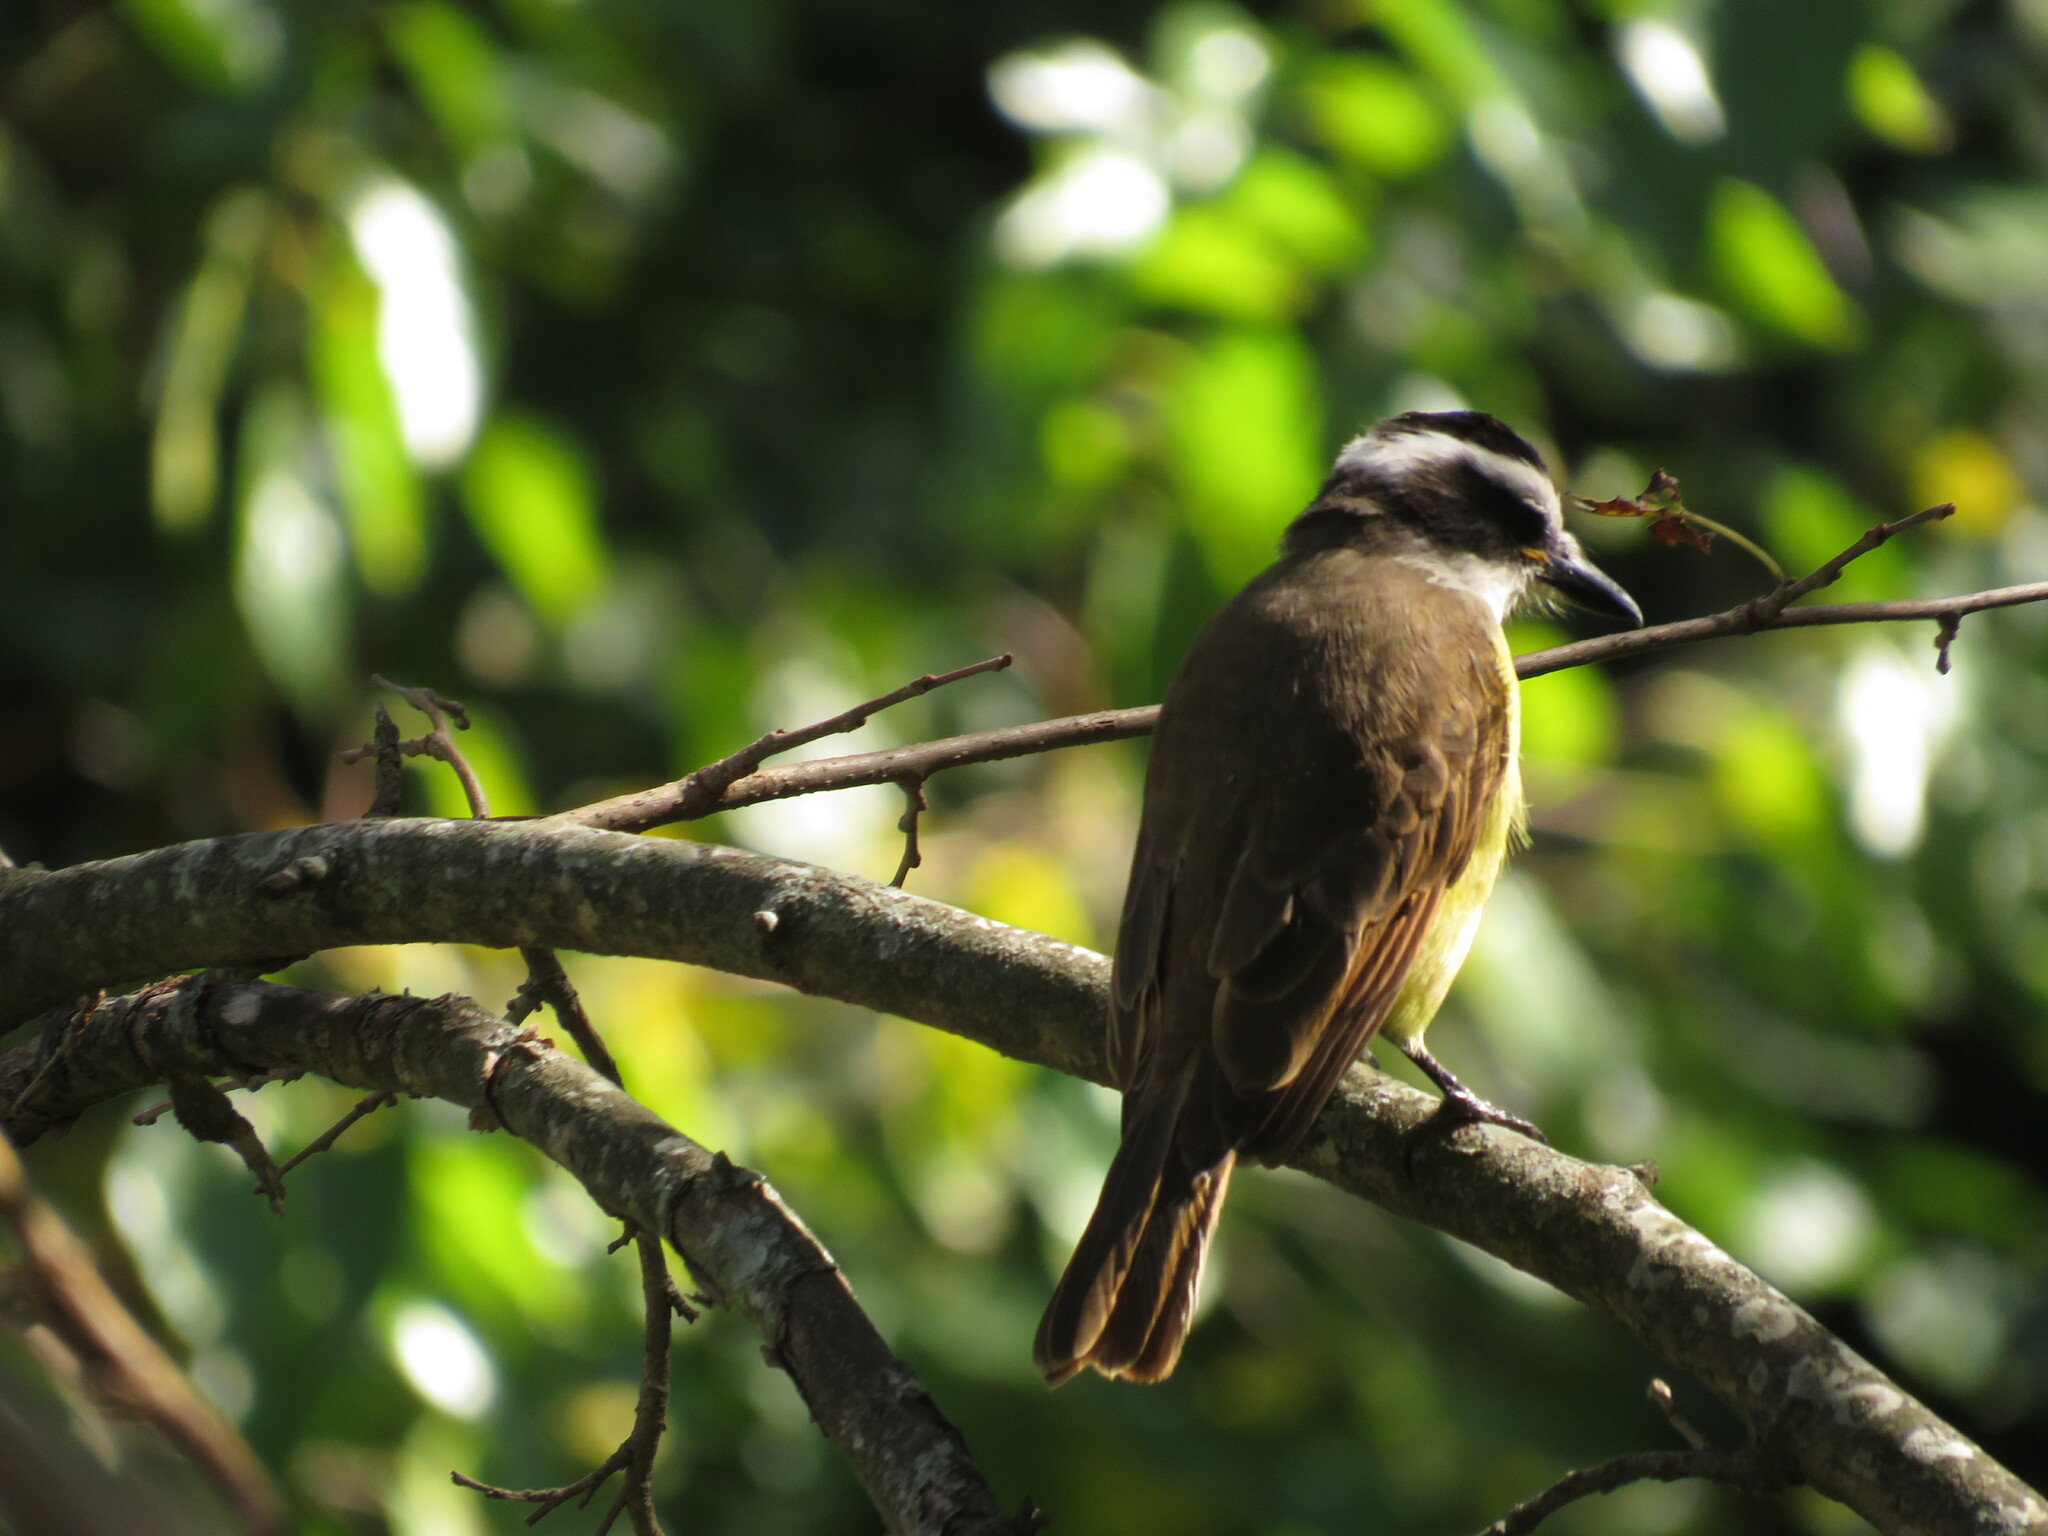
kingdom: Animalia
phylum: Chordata
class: Aves
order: Passeriformes
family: Tyrannidae
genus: Pitangus
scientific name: Pitangus sulphuratus
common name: Great kiskadee
